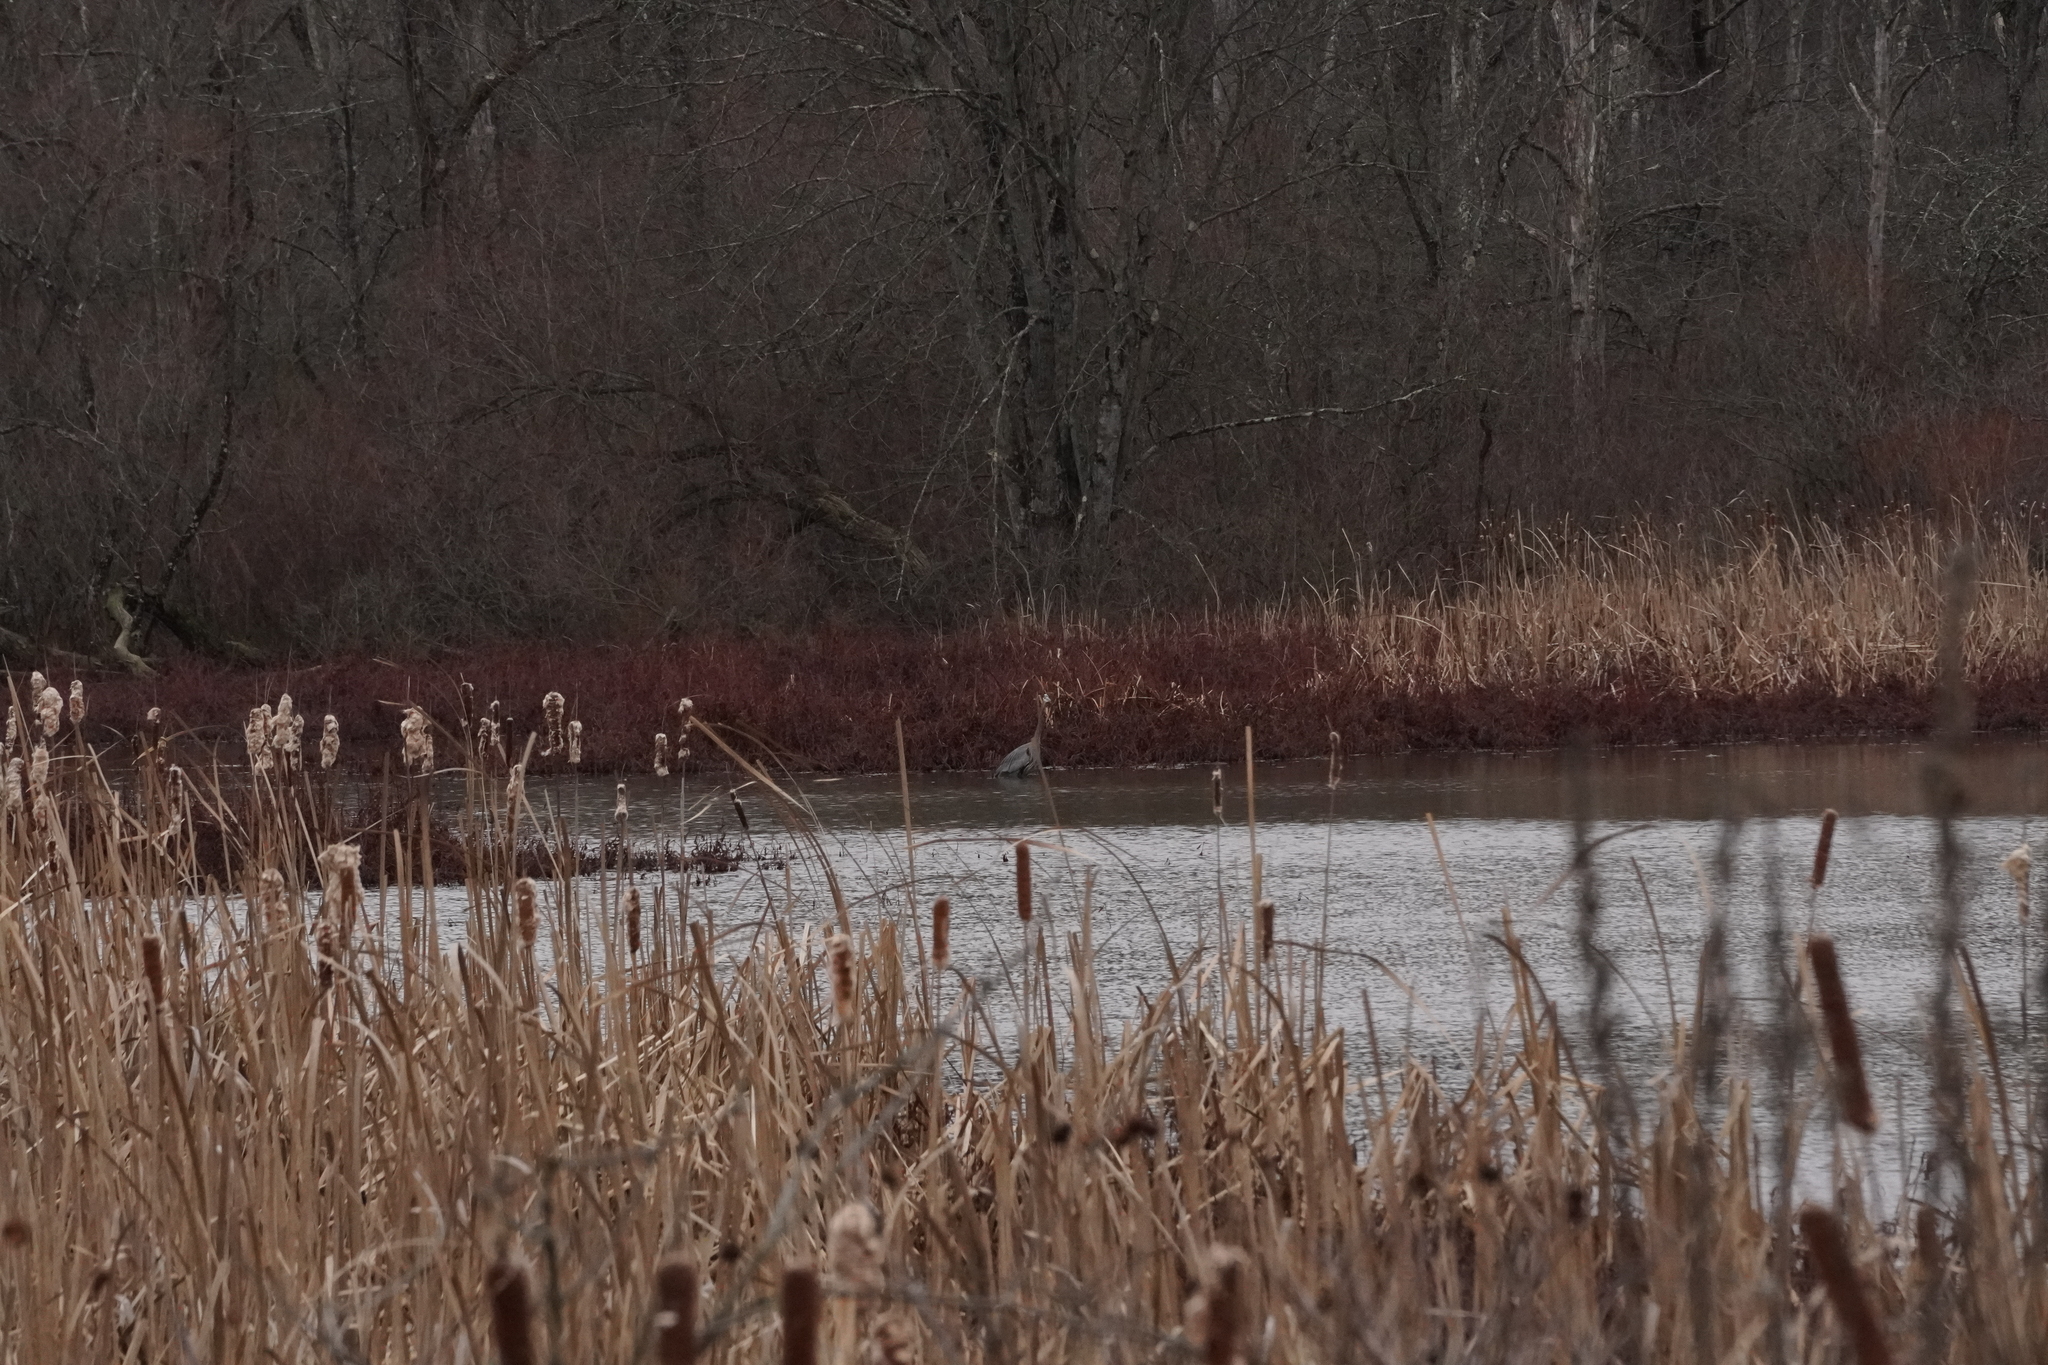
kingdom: Animalia
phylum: Chordata
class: Aves
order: Pelecaniformes
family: Ardeidae
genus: Ardea
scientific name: Ardea herodias
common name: Great blue heron
